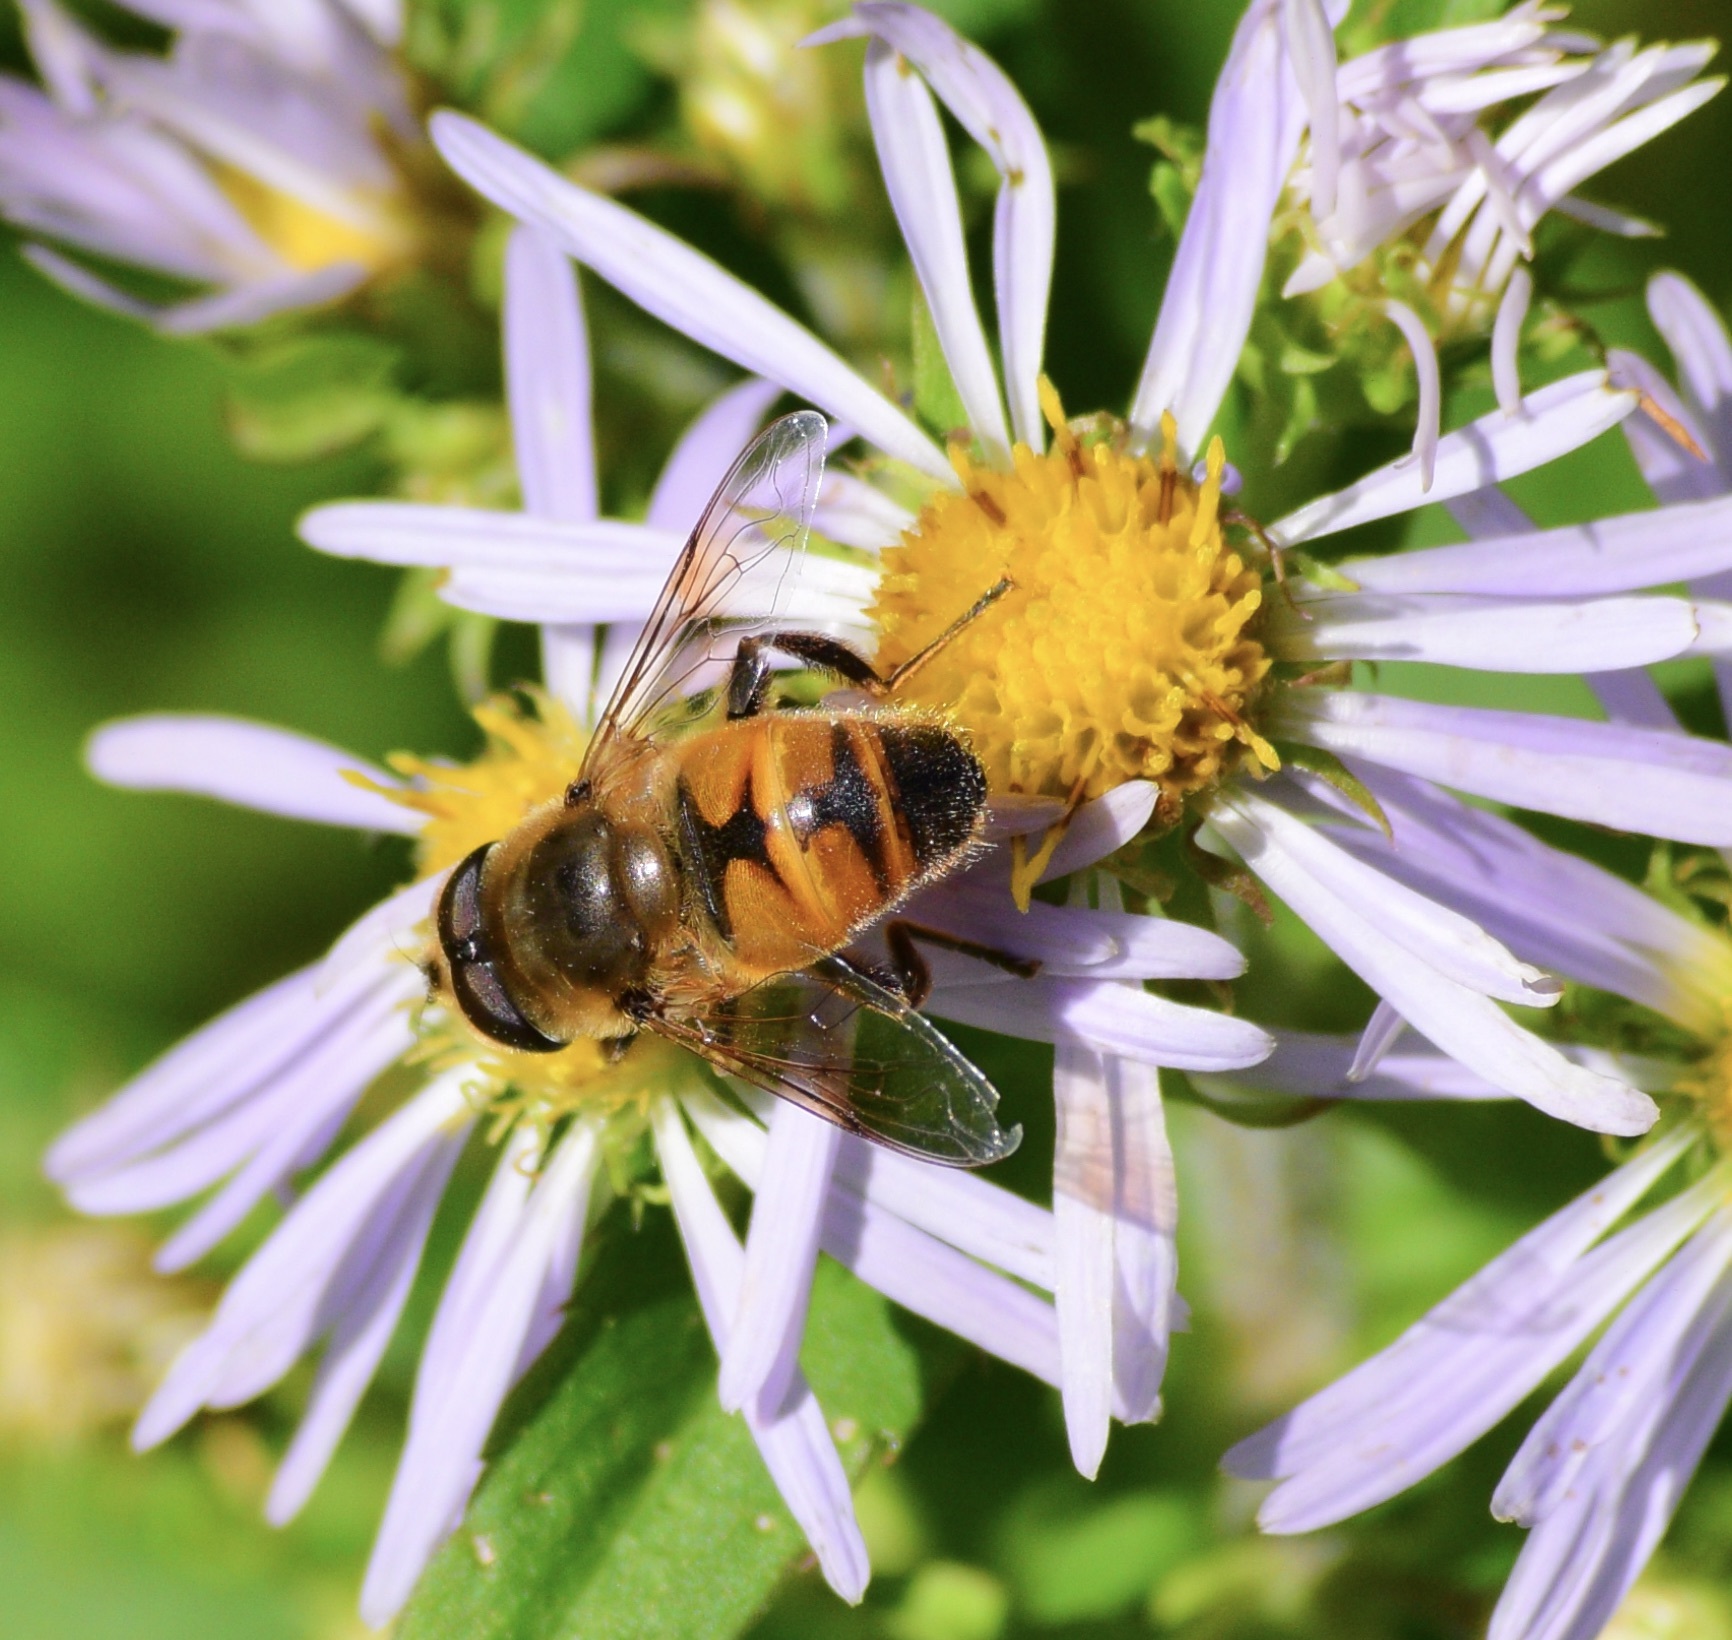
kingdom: Animalia
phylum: Arthropoda
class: Insecta
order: Diptera
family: Syrphidae
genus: Eristalis
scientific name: Eristalis tenax
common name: Drone fly
